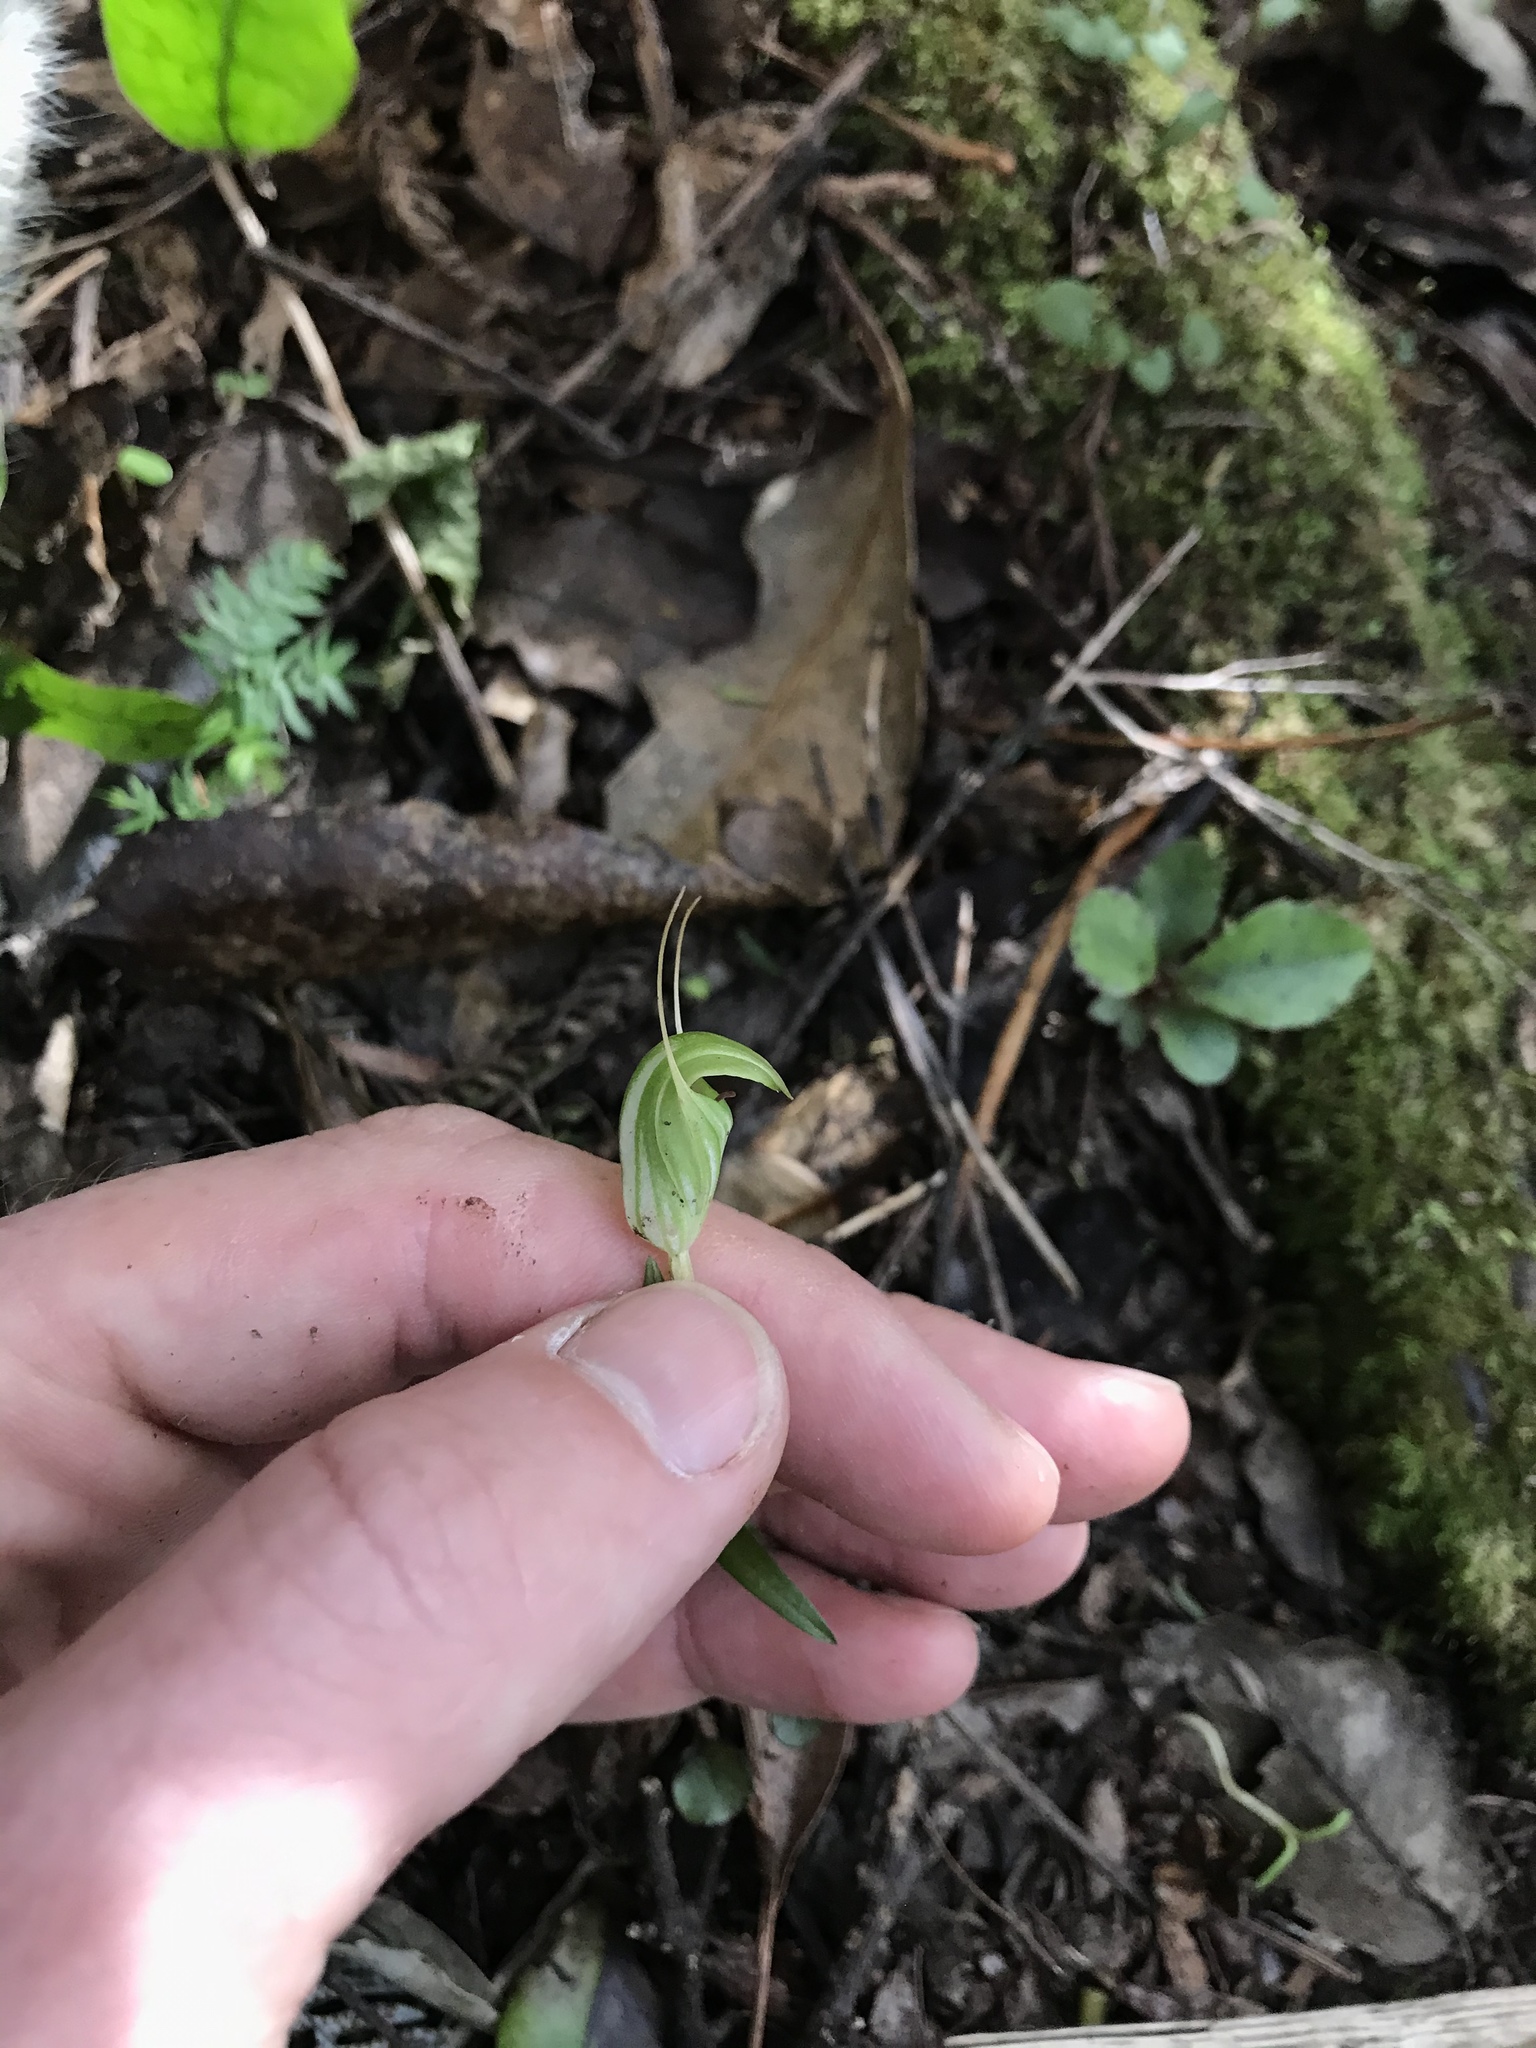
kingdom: Plantae
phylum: Tracheophyta
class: Liliopsida
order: Asparagales
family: Orchidaceae
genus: Pterostylis
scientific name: Pterostylis alobula
